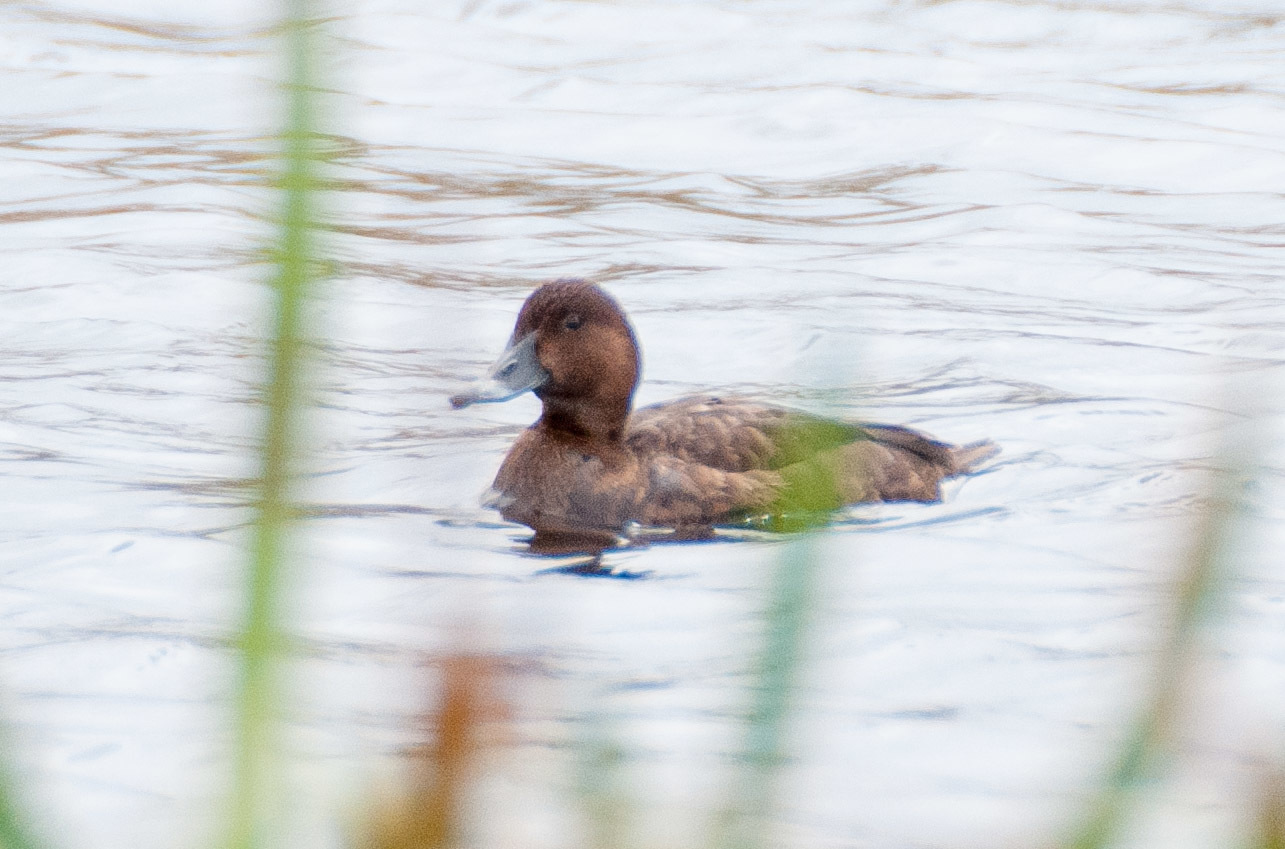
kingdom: Animalia
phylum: Chordata
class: Aves
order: Anseriformes
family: Anatidae
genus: Aythya
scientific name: Aythya australis
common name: Hardhead
